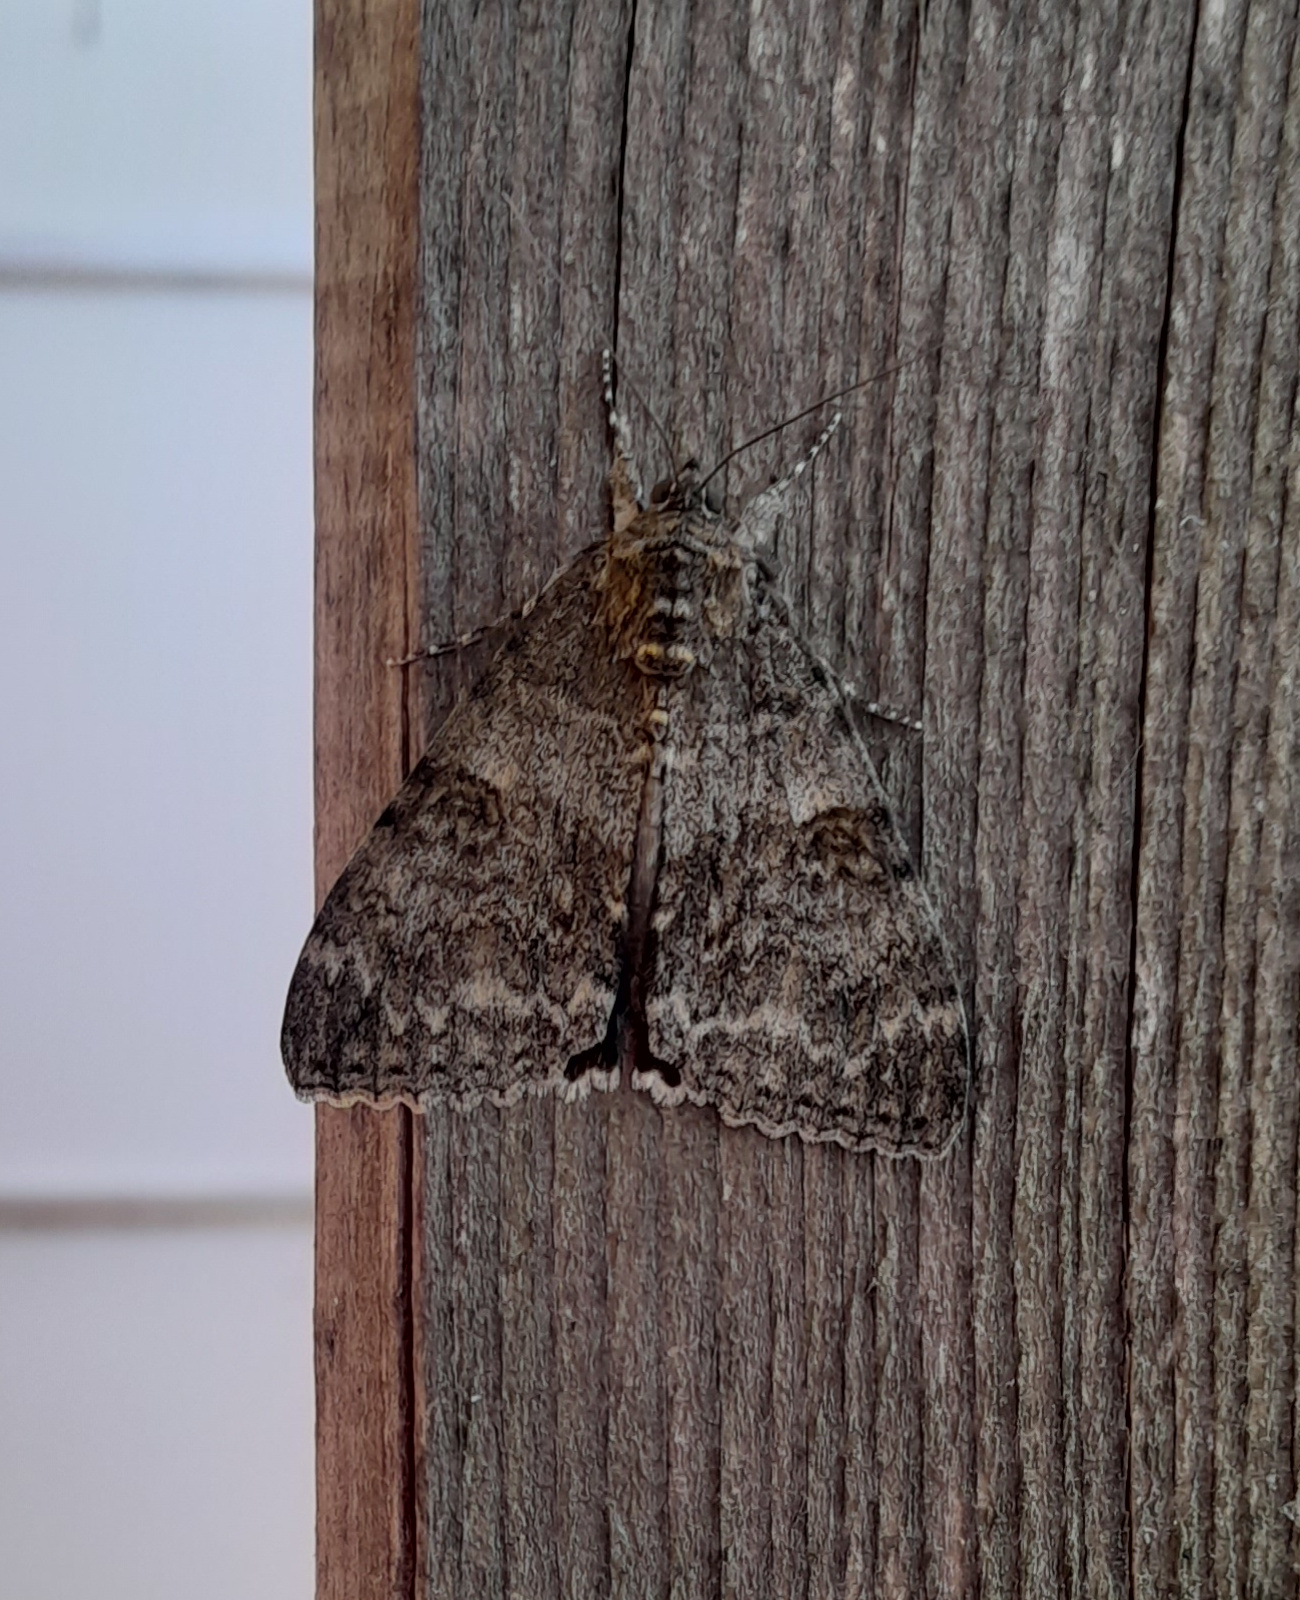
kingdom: Animalia
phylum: Arthropoda
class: Insecta
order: Lepidoptera
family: Erebidae
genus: Catocala
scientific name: Catocala nupta
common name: Red underwing
